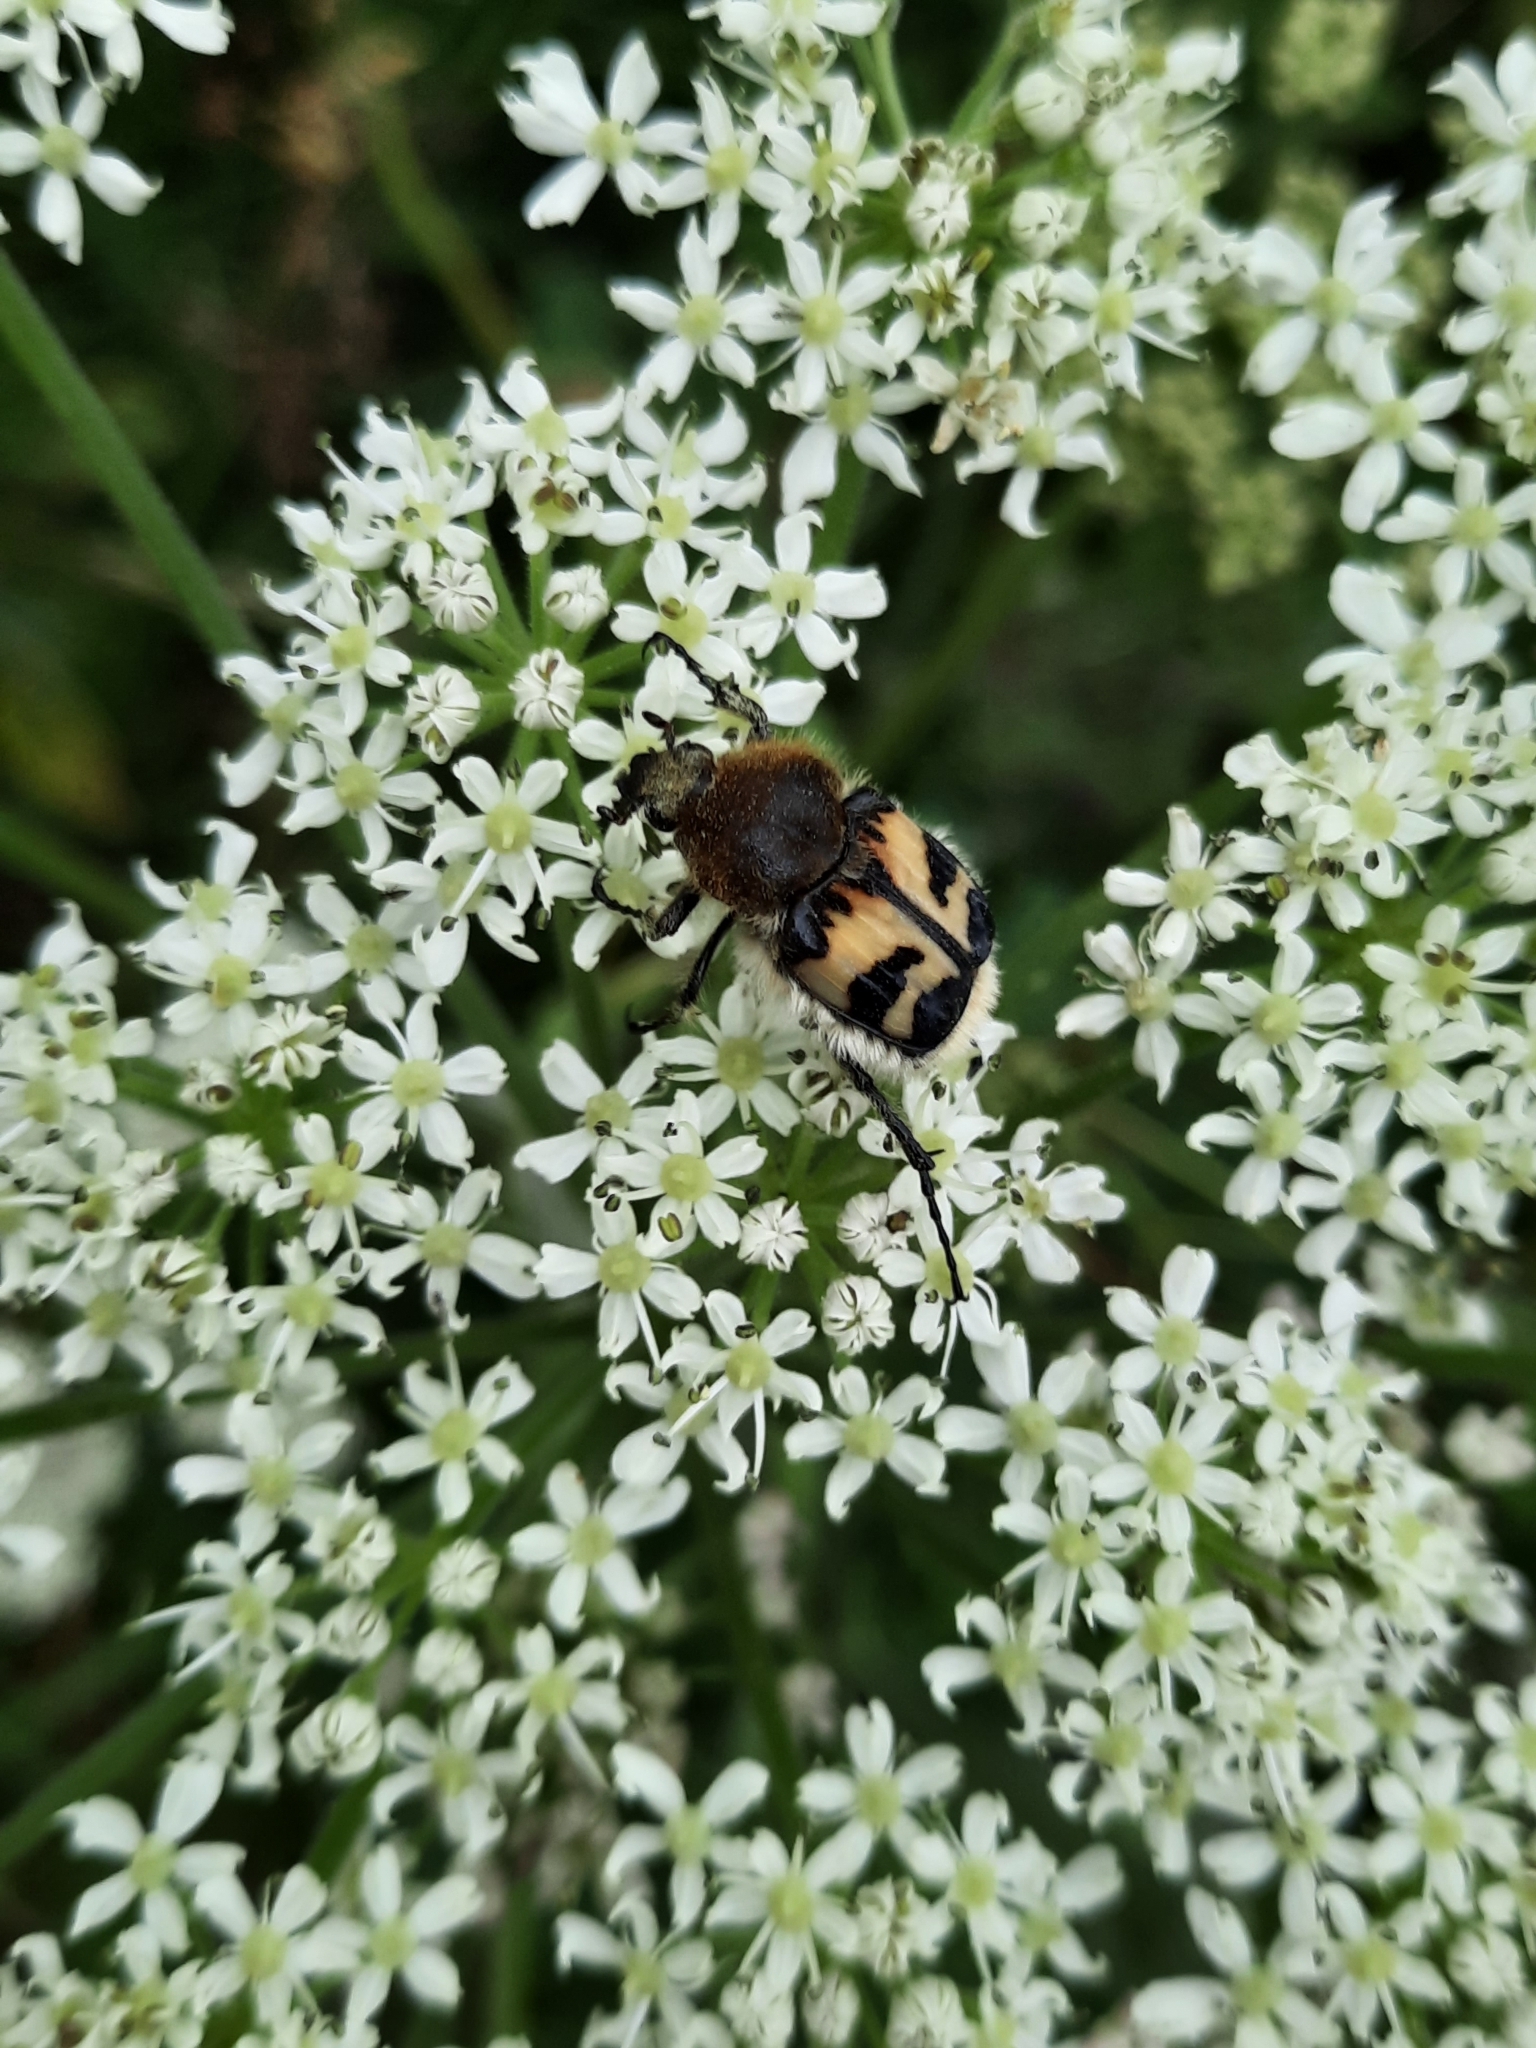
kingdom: Animalia
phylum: Arthropoda
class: Insecta
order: Coleoptera
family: Scarabaeidae
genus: Trichius
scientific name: Trichius fasciatus
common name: Bee beetle
